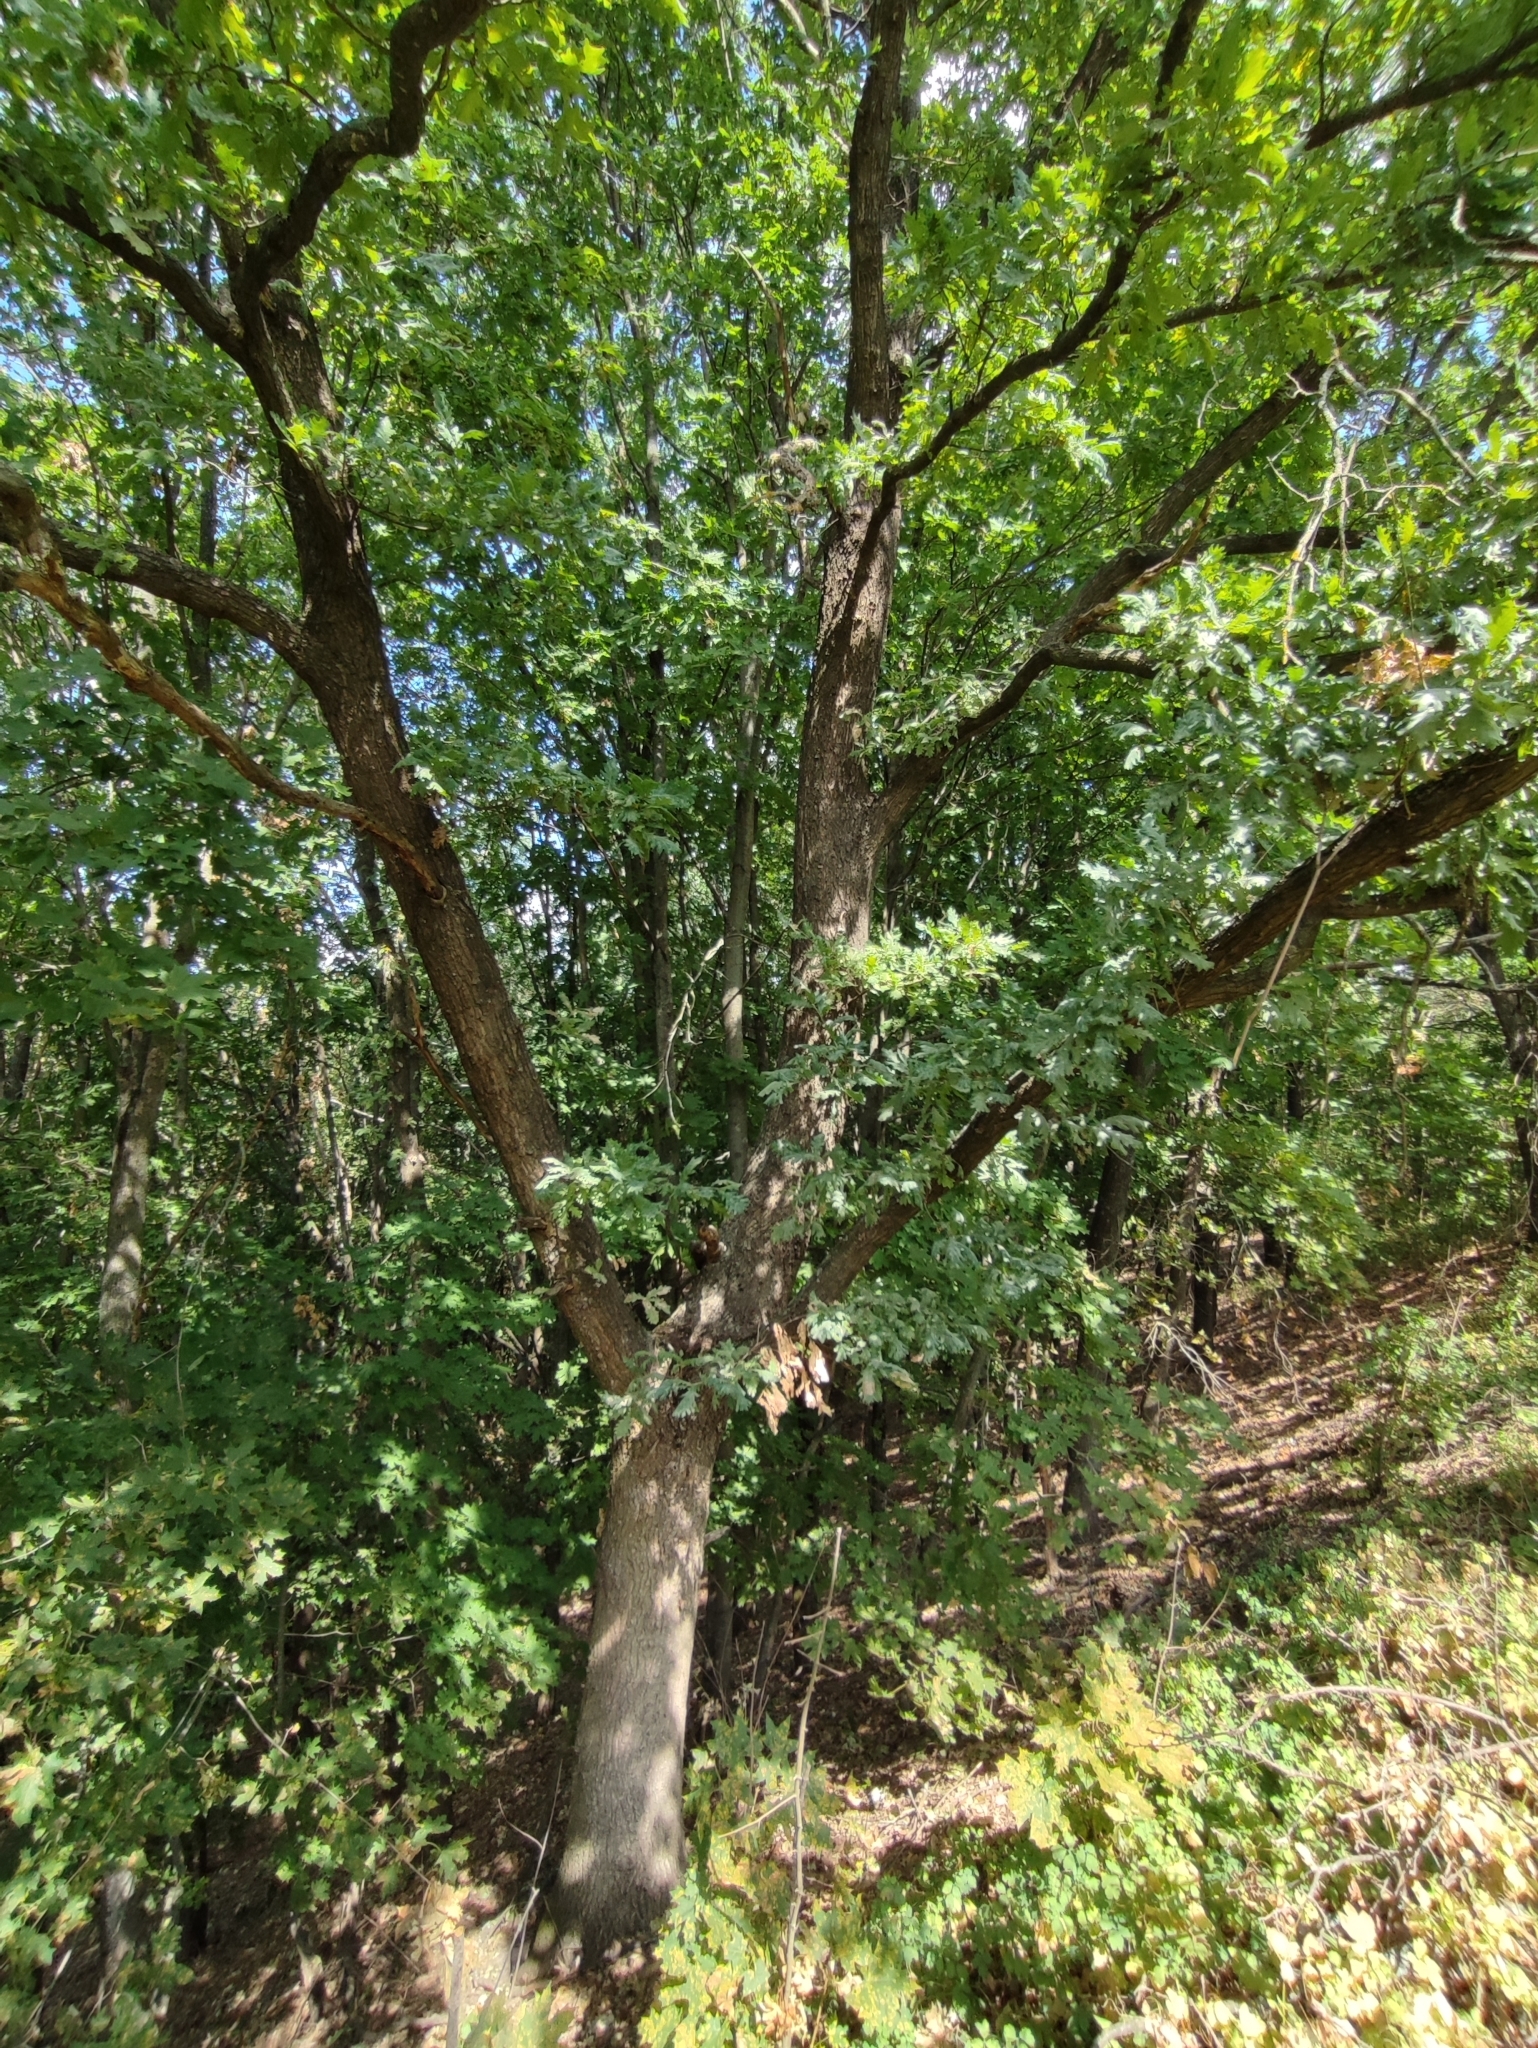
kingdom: Plantae
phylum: Tracheophyta
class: Magnoliopsida
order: Fagales
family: Fagaceae
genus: Quercus
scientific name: Quercus robur
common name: Pedunculate oak
